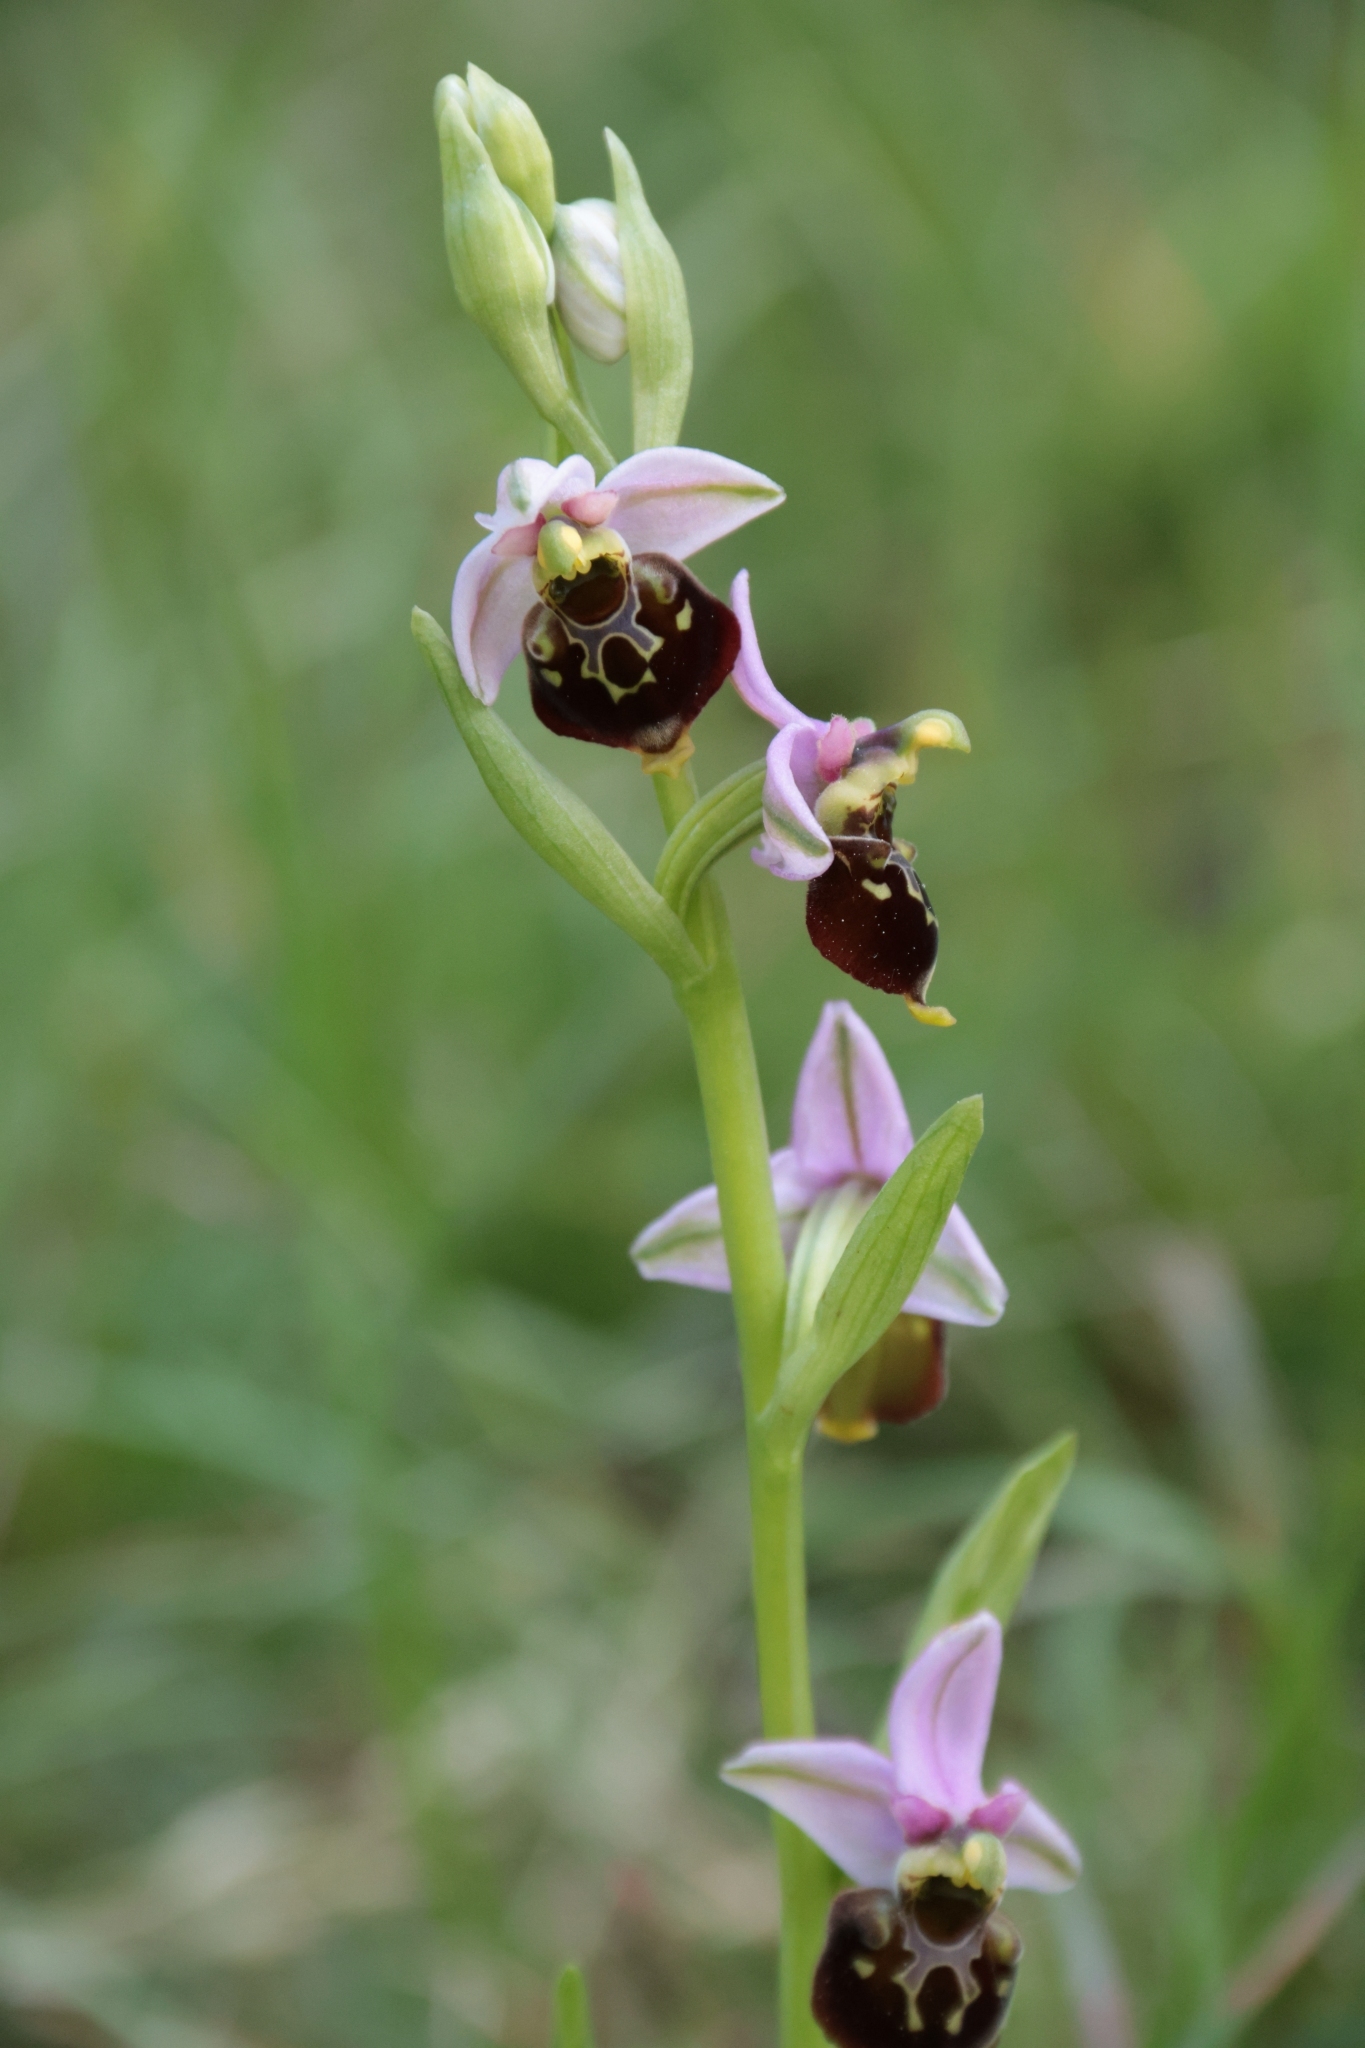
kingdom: Plantae
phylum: Tracheophyta
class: Liliopsida
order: Asparagales
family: Orchidaceae
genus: Ophrys
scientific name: Ophrys holosericea
